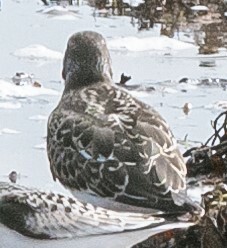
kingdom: Animalia
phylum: Chordata
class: Aves
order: Charadriiformes
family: Scolopacidae
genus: Arenaria
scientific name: Arenaria interpres
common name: Ruddy turnstone
